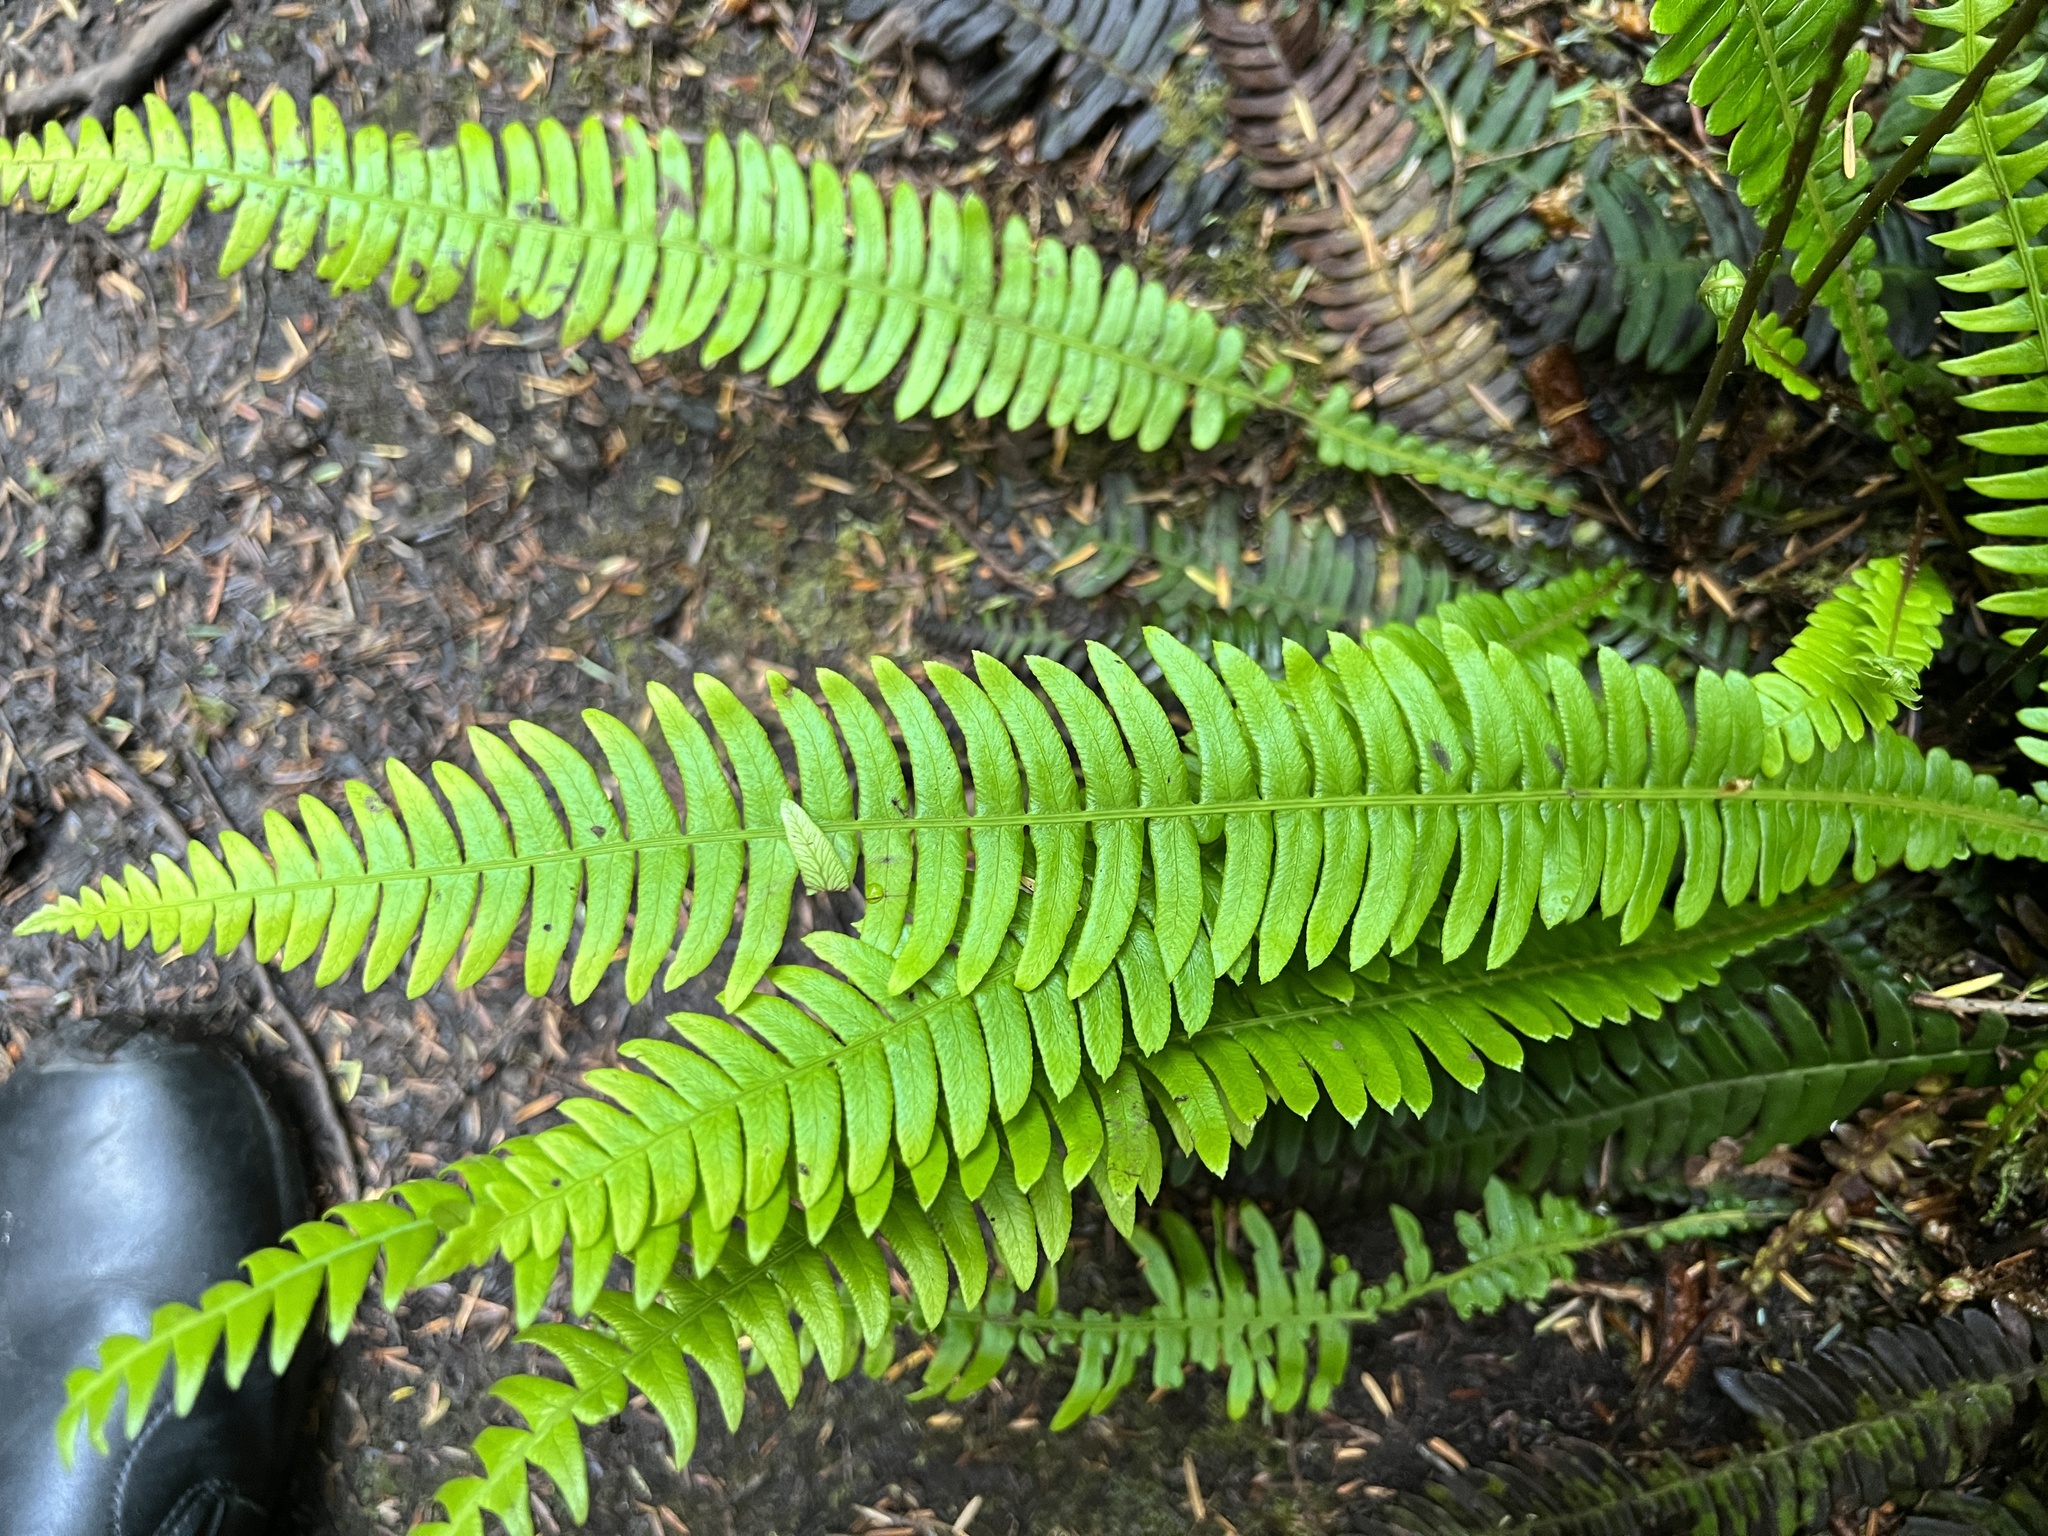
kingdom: Plantae
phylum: Tracheophyta
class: Polypodiopsida
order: Polypodiales
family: Blechnaceae
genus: Struthiopteris
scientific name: Struthiopteris spicant
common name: Deer fern
